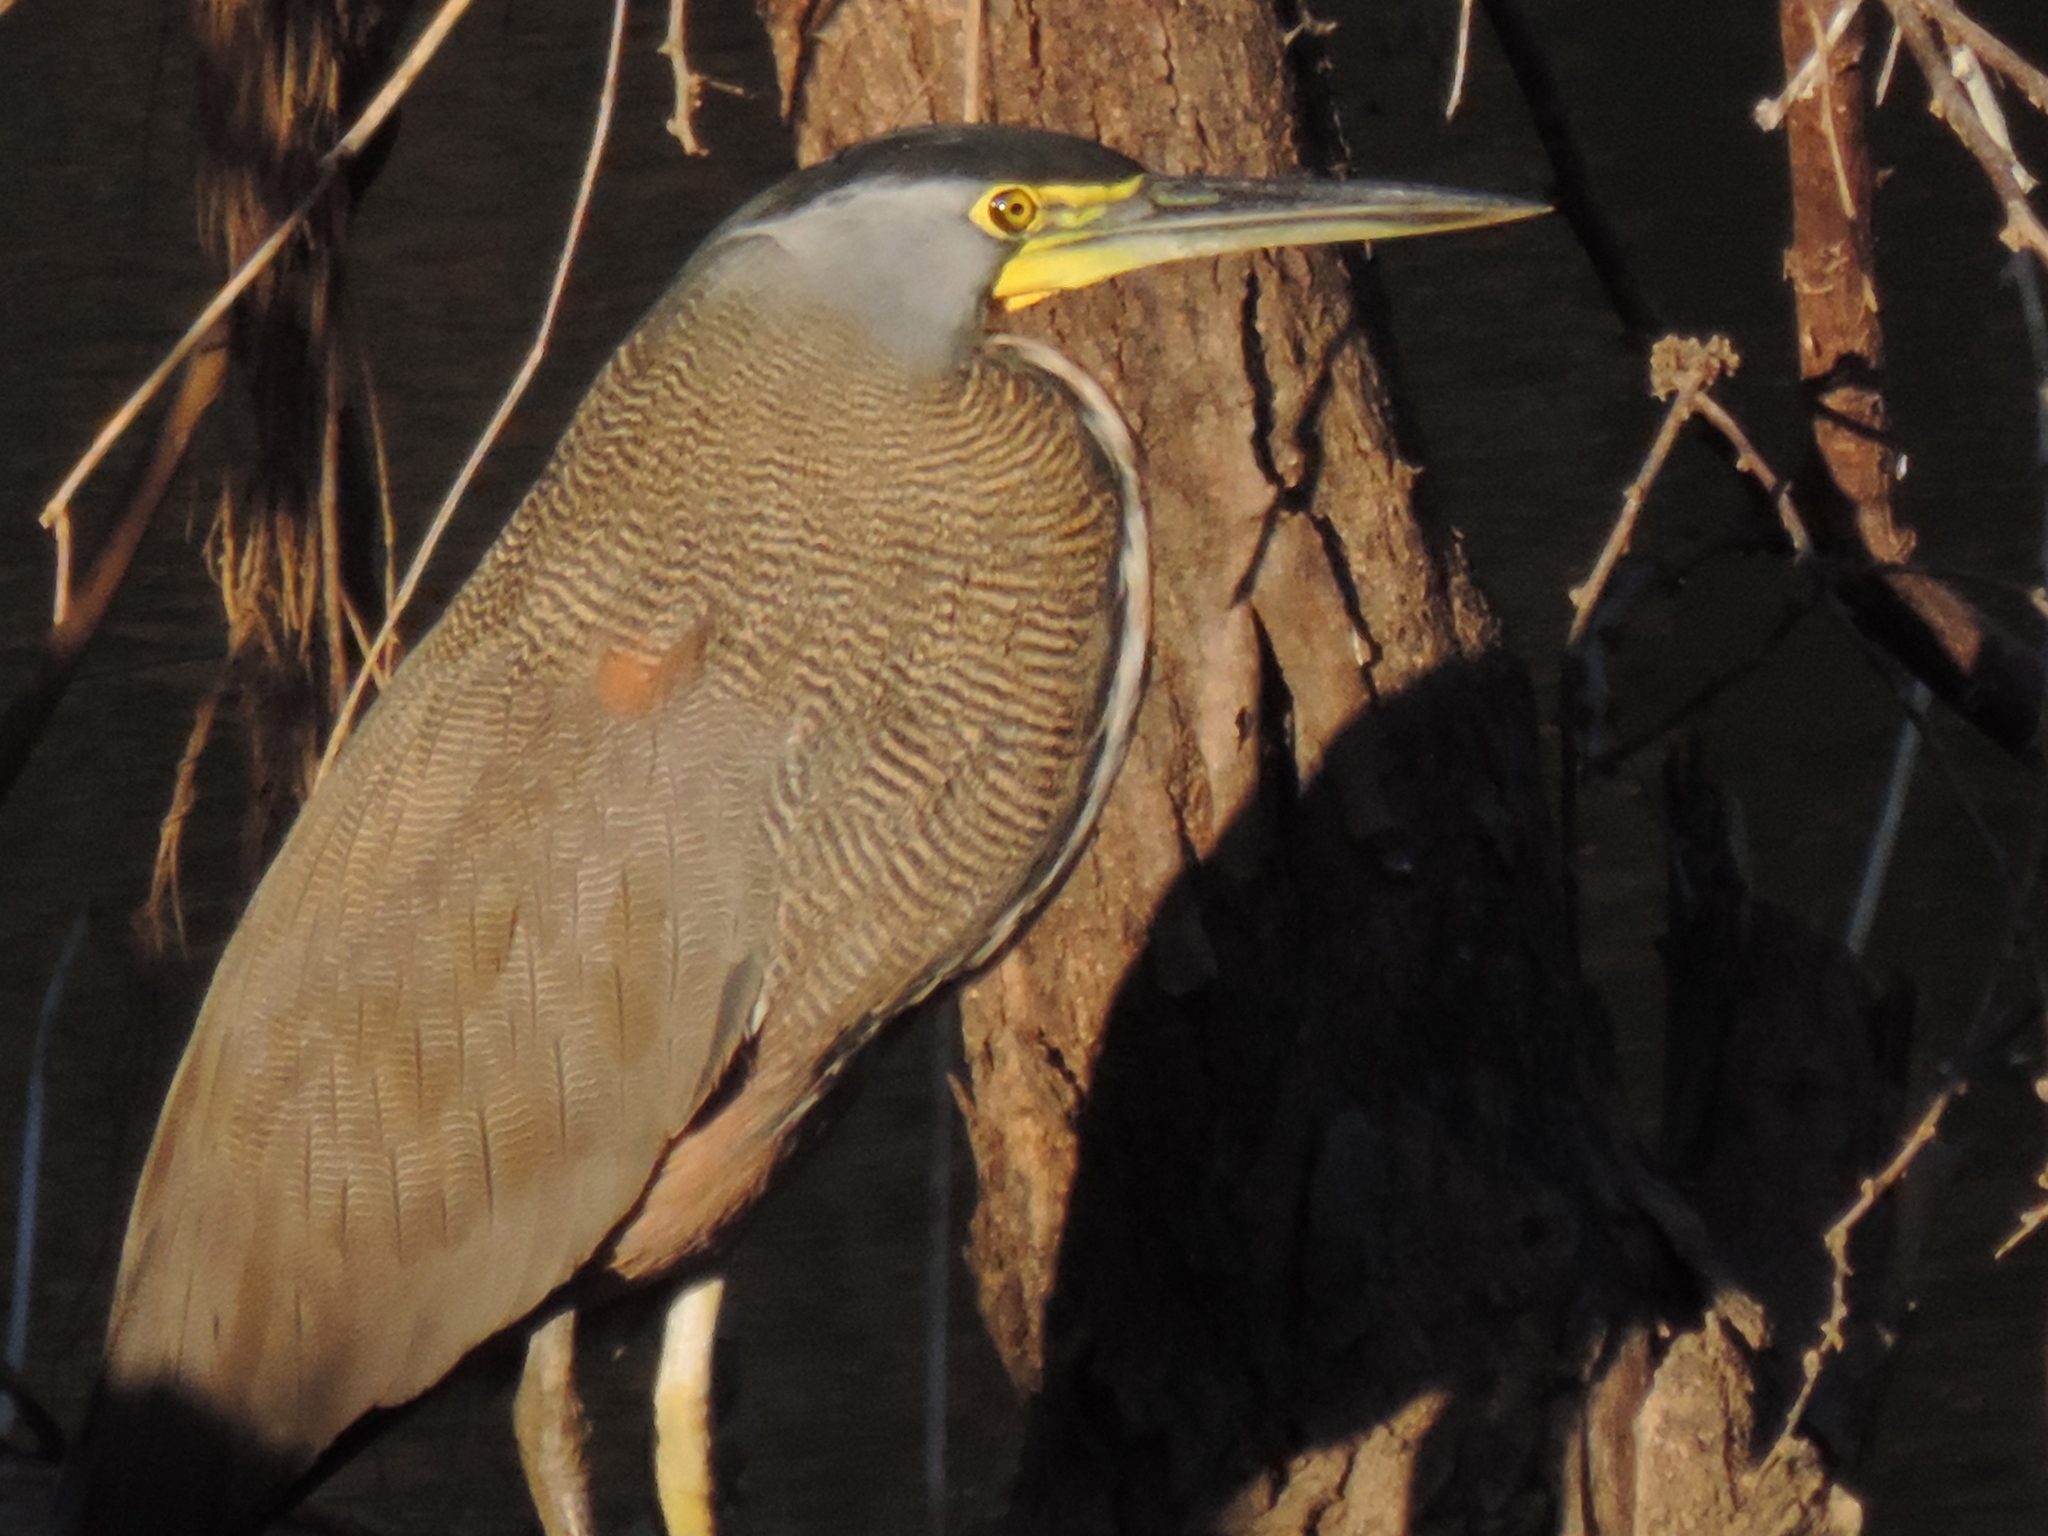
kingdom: Animalia
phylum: Chordata
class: Aves
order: Pelecaniformes
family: Ardeidae
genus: Tigrisoma
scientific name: Tigrisoma mexicanum
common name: Bare-throated tiger-heron
